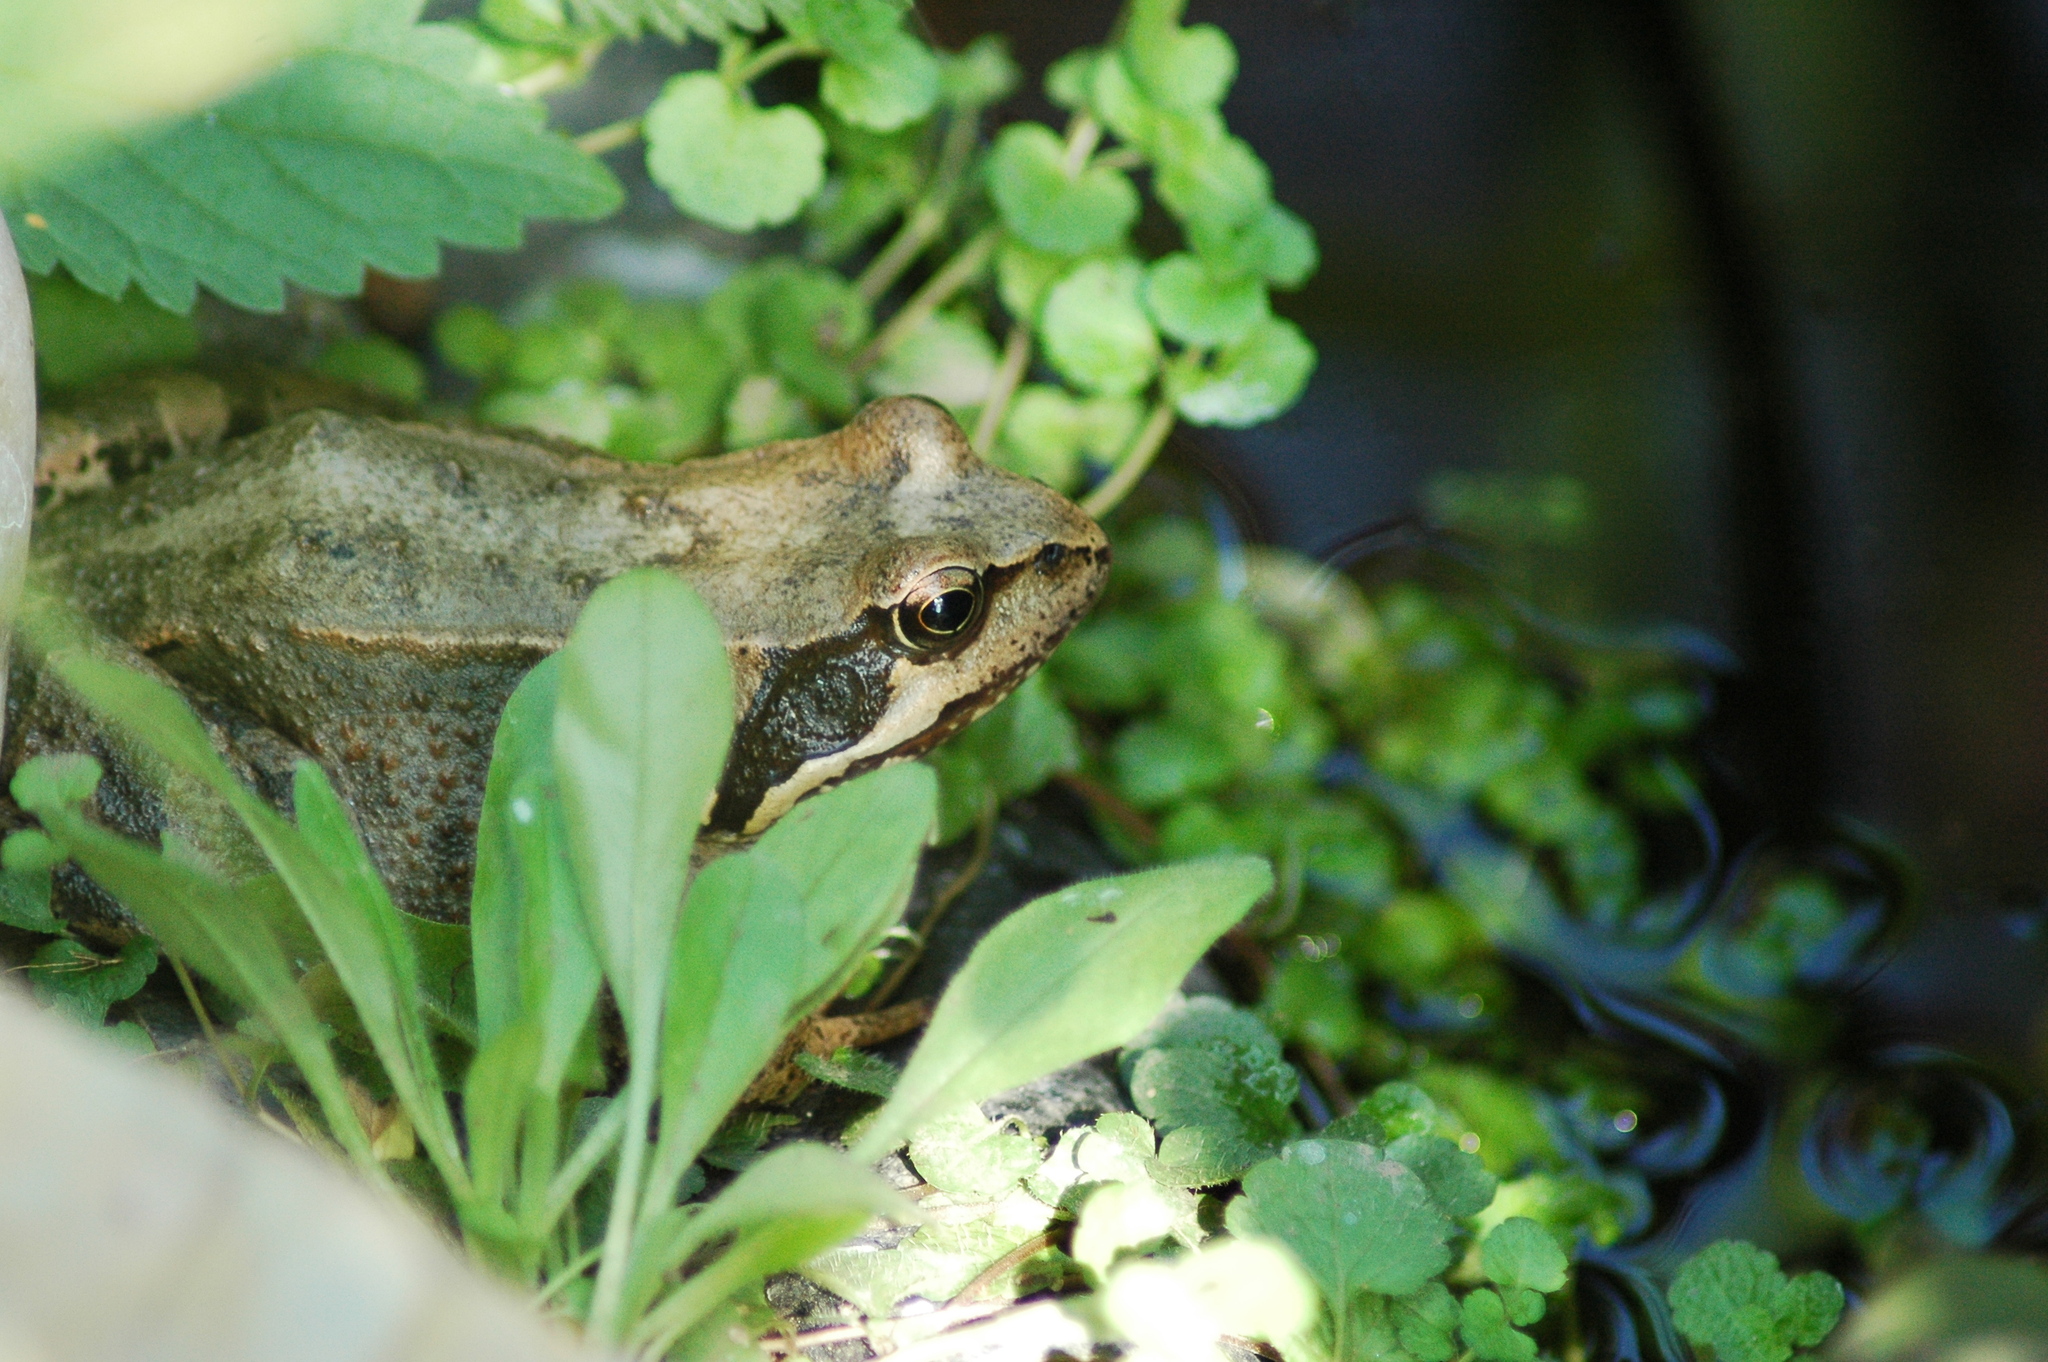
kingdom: Animalia
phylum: Chordata
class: Amphibia
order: Anura
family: Ranidae
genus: Rana
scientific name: Rana temporaria
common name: Common frog
